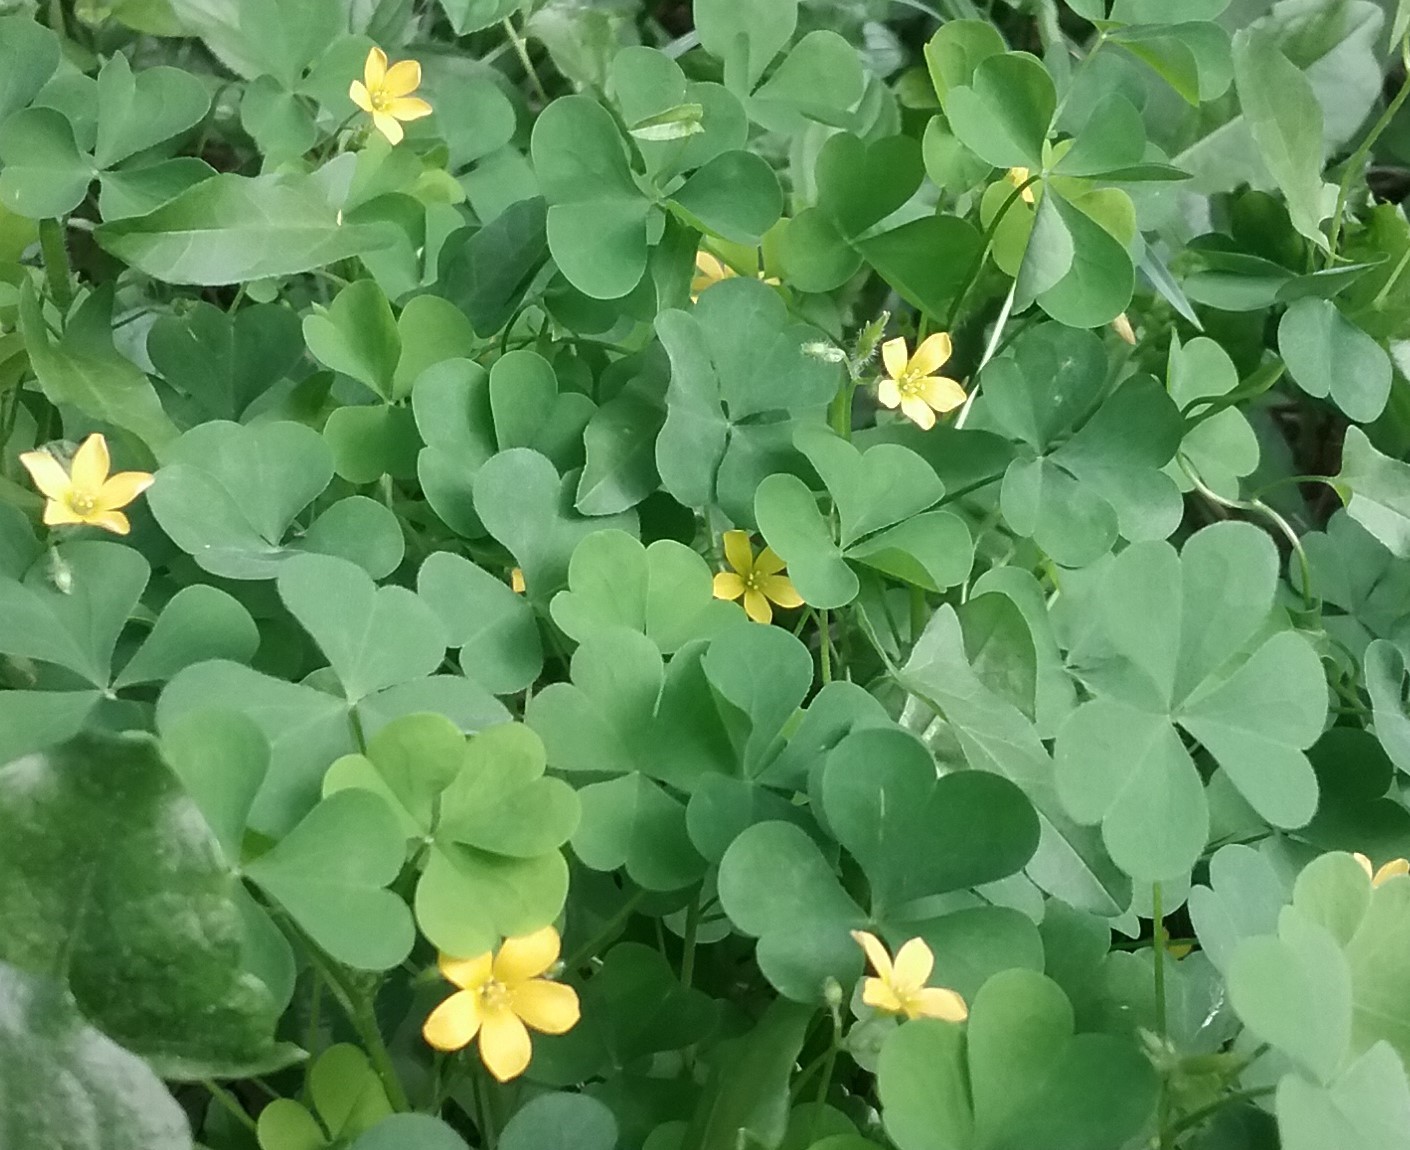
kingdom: Plantae
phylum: Tracheophyta
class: Magnoliopsida
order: Oxalidales
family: Oxalidaceae
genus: Oxalis
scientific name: Oxalis stricta
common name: Upright yellow-sorrel
